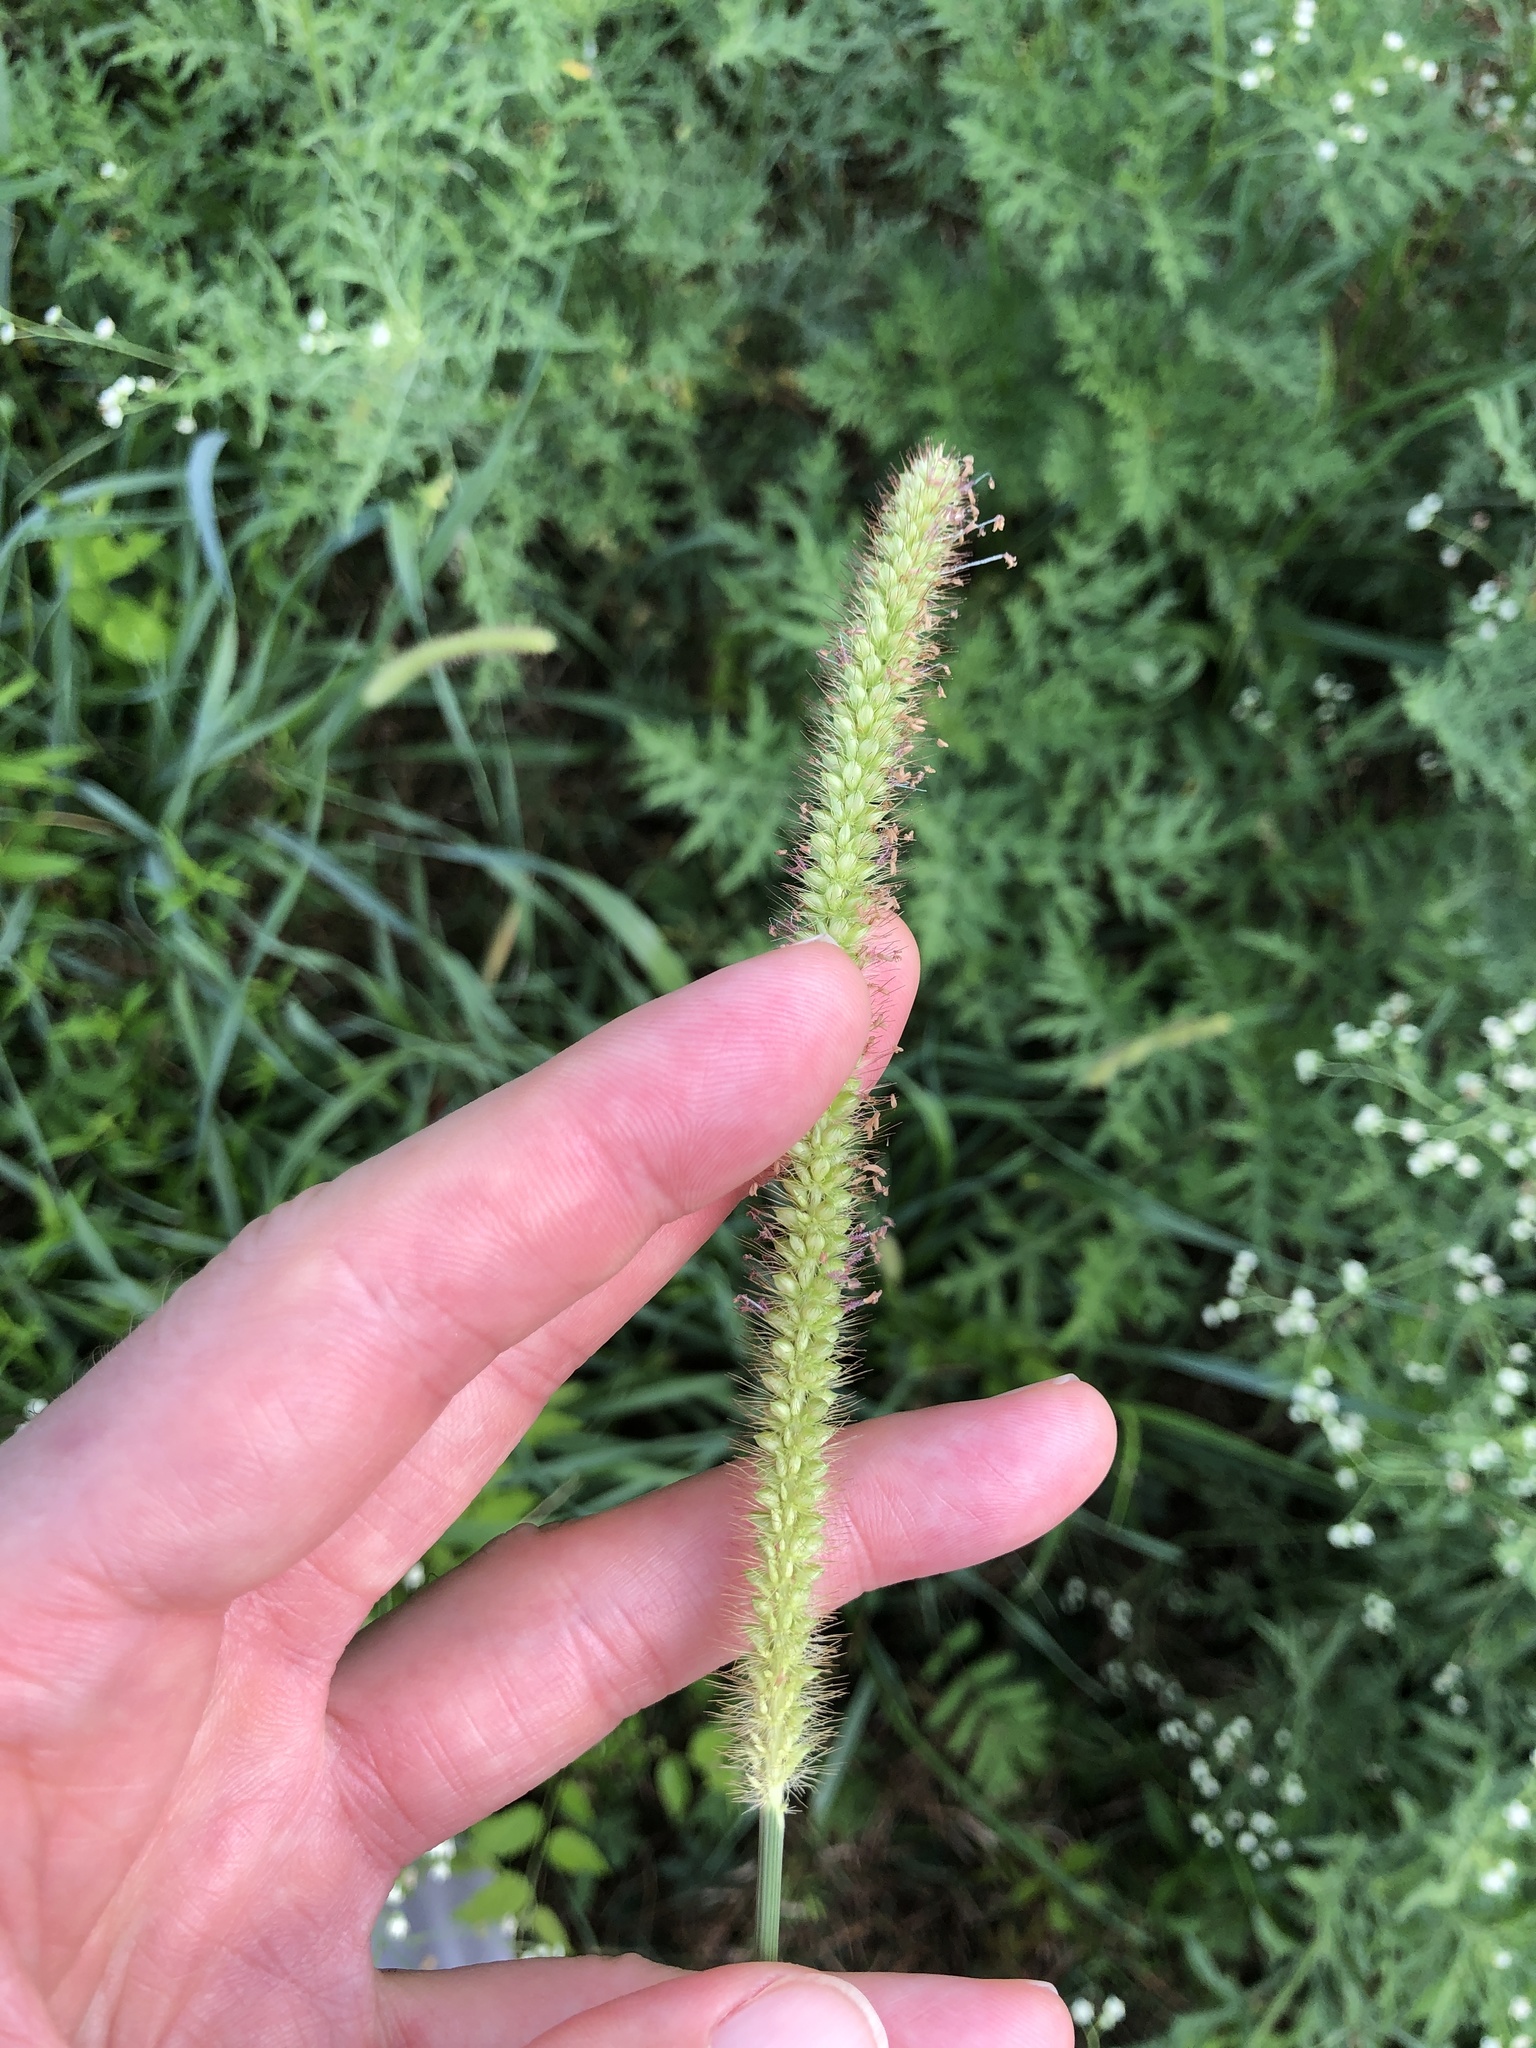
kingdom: Plantae
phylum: Tracheophyta
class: Liliopsida
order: Poales
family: Poaceae
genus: Setaria
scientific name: Setaria pumila
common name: Yellow bristle-grass
